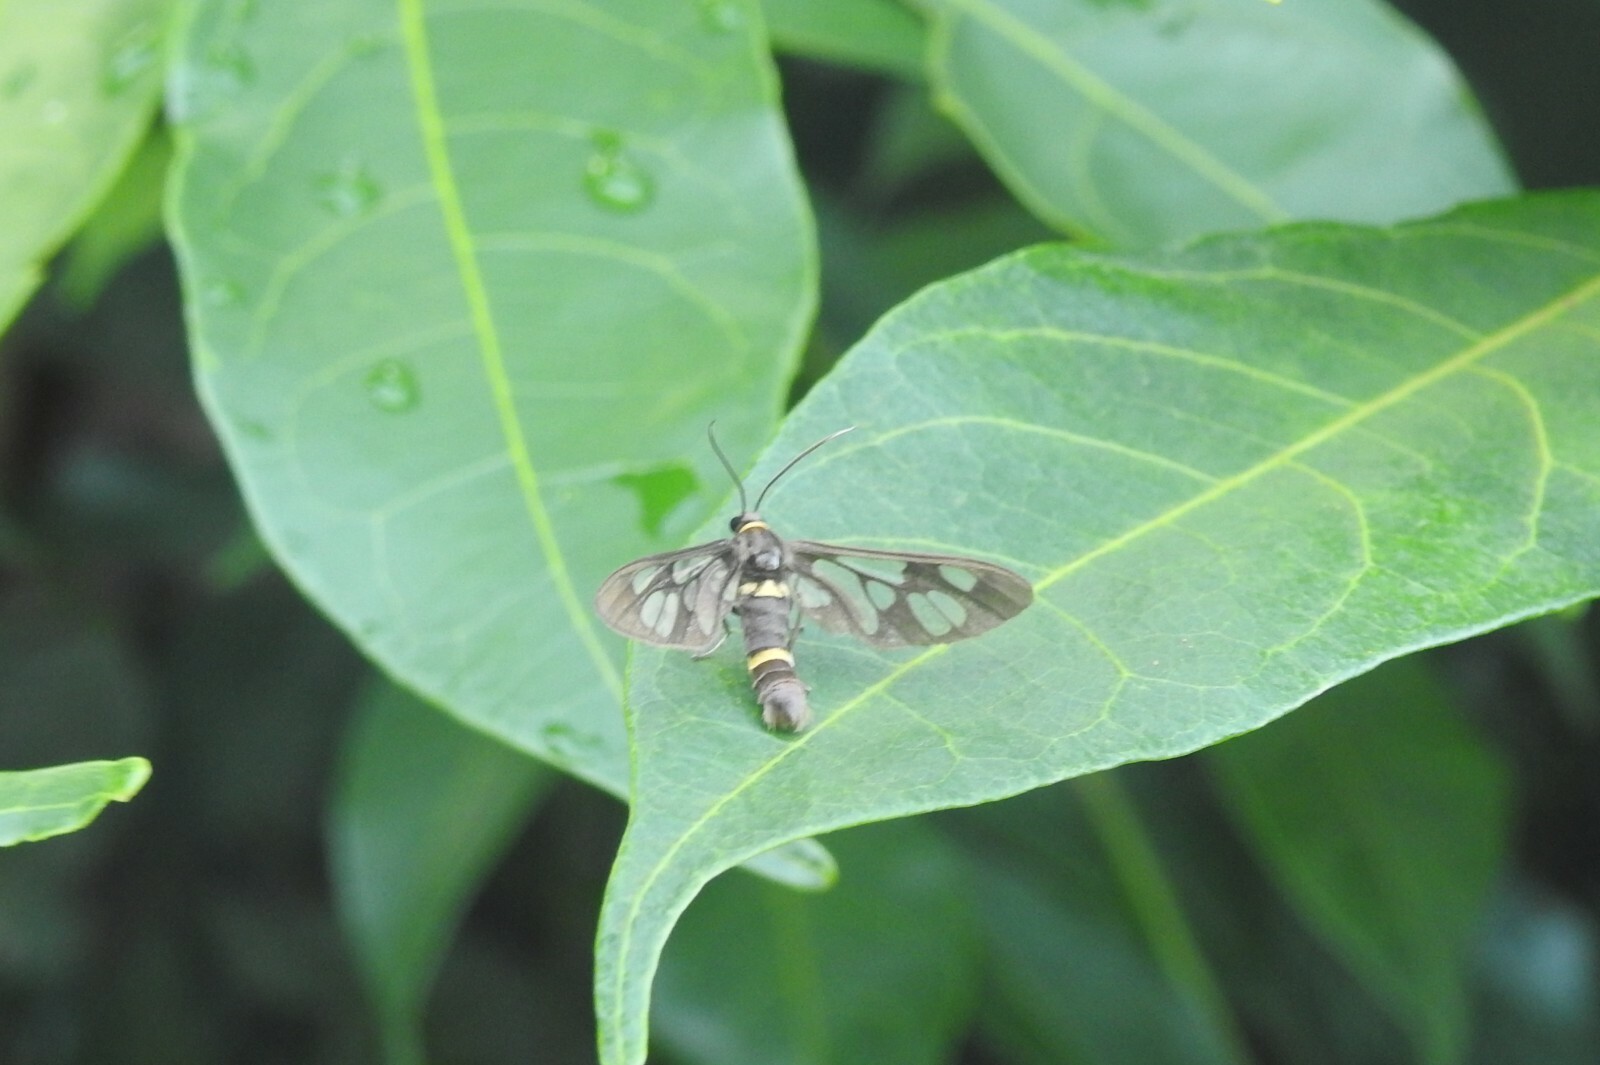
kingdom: Animalia
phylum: Arthropoda
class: Insecta
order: Lepidoptera
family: Erebidae
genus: Syntomoides
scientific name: Syntomoides imaon
